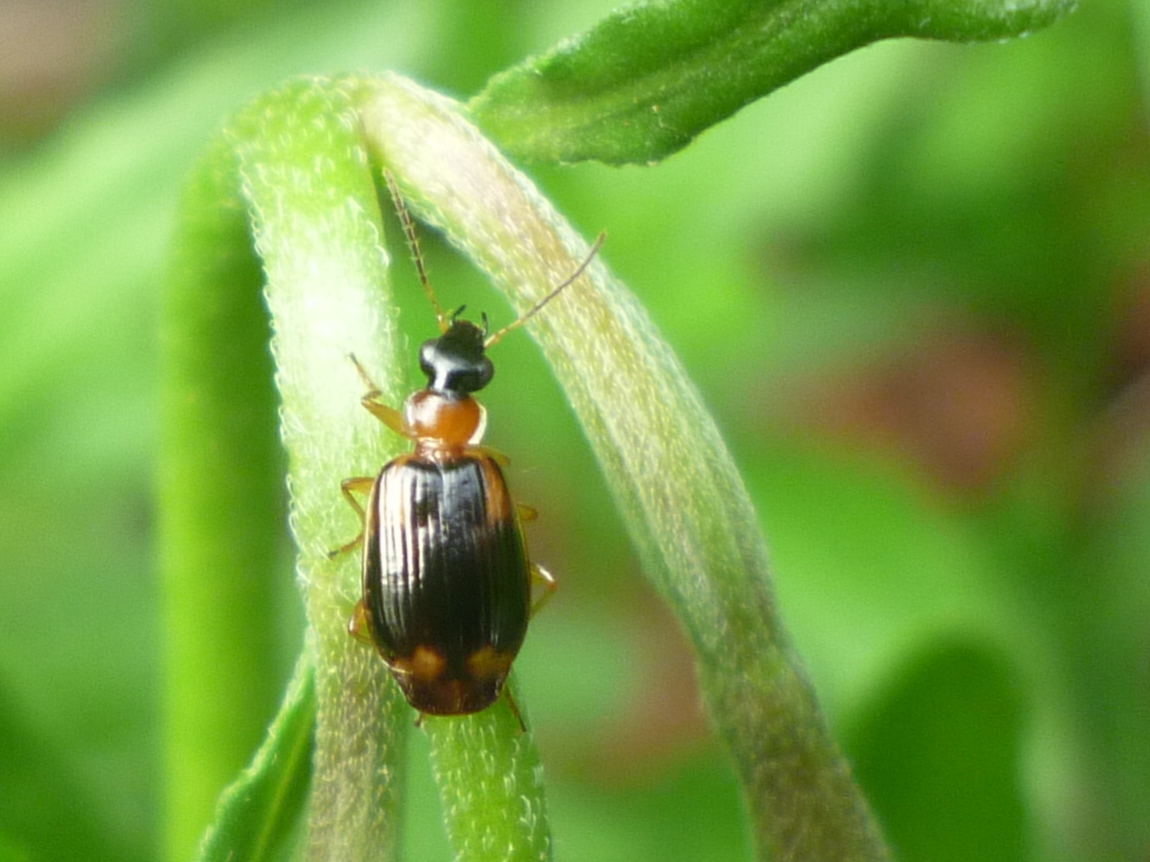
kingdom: Animalia
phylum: Arthropoda
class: Insecta
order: Coleoptera
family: Carabidae
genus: Lebia
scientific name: Lebia analis
